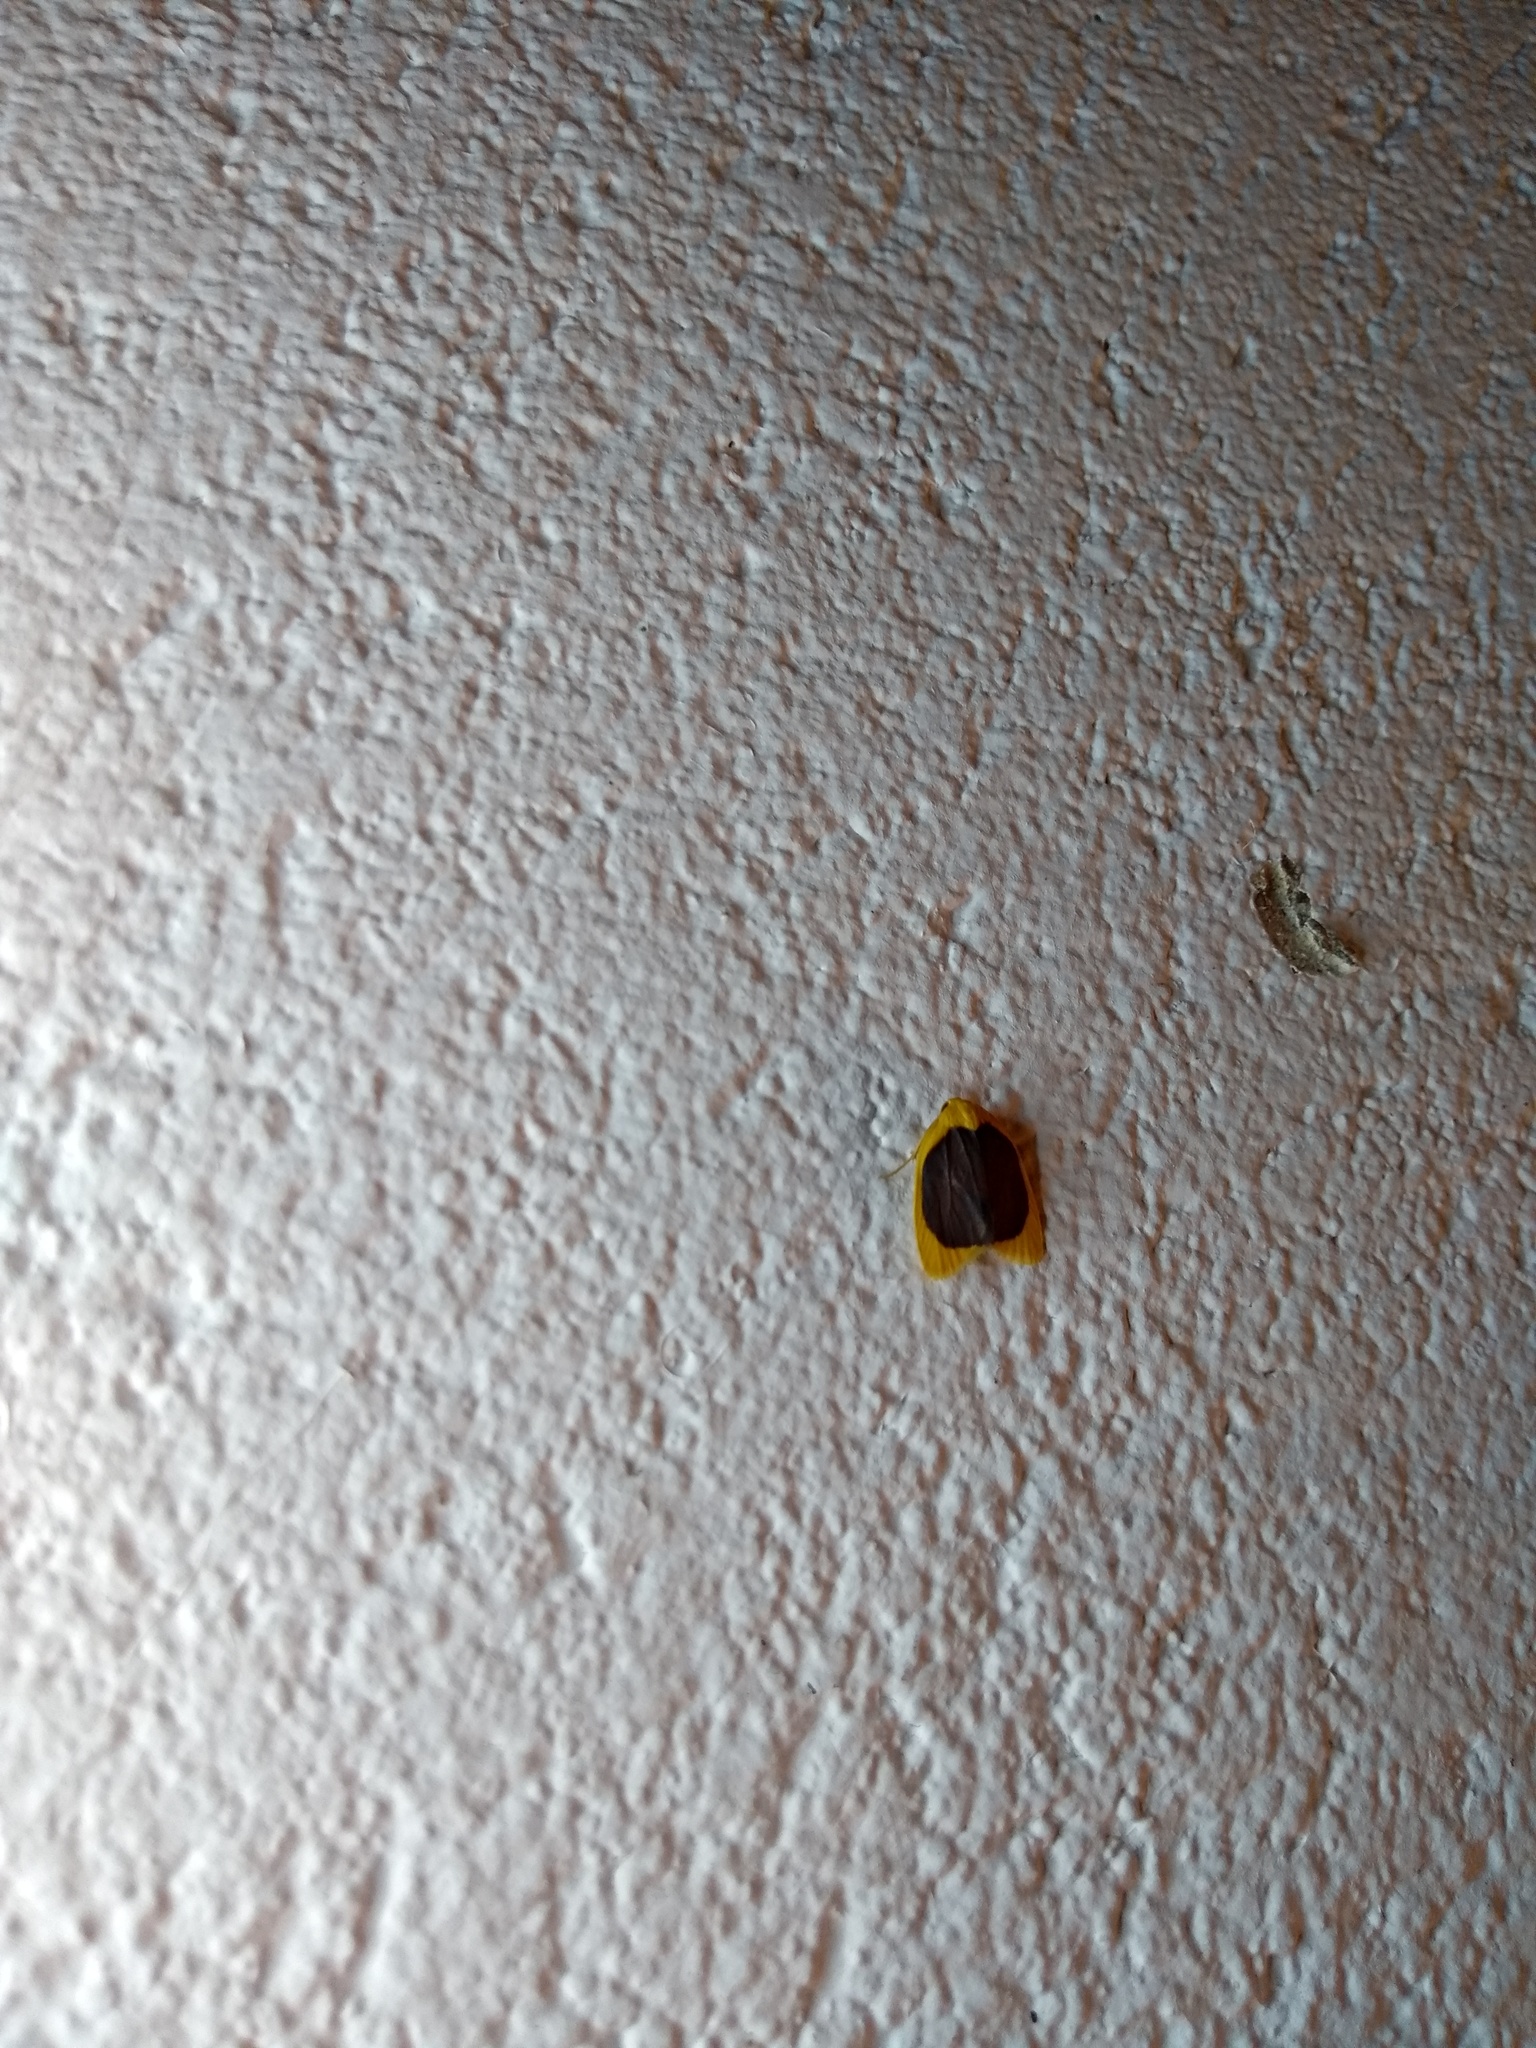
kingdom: Animalia
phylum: Arthropoda
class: Insecta
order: Lepidoptera
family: Erebidae
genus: Pronola
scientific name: Pronola magniplaga
